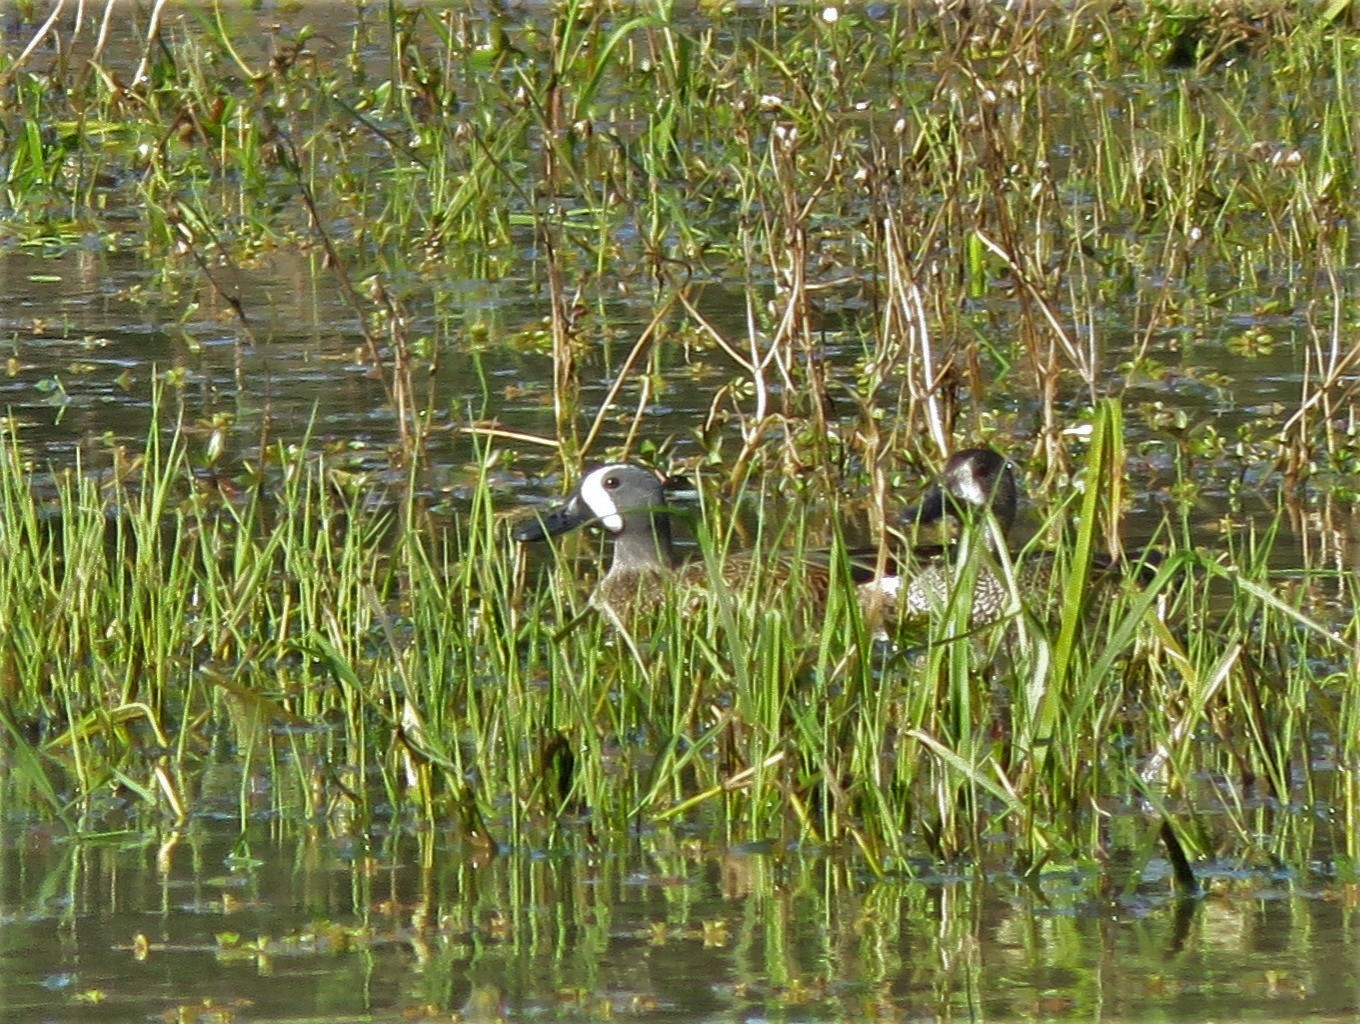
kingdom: Animalia
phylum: Chordata
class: Aves
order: Anseriformes
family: Anatidae
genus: Spatula
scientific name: Spatula discors
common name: Blue-winged teal
